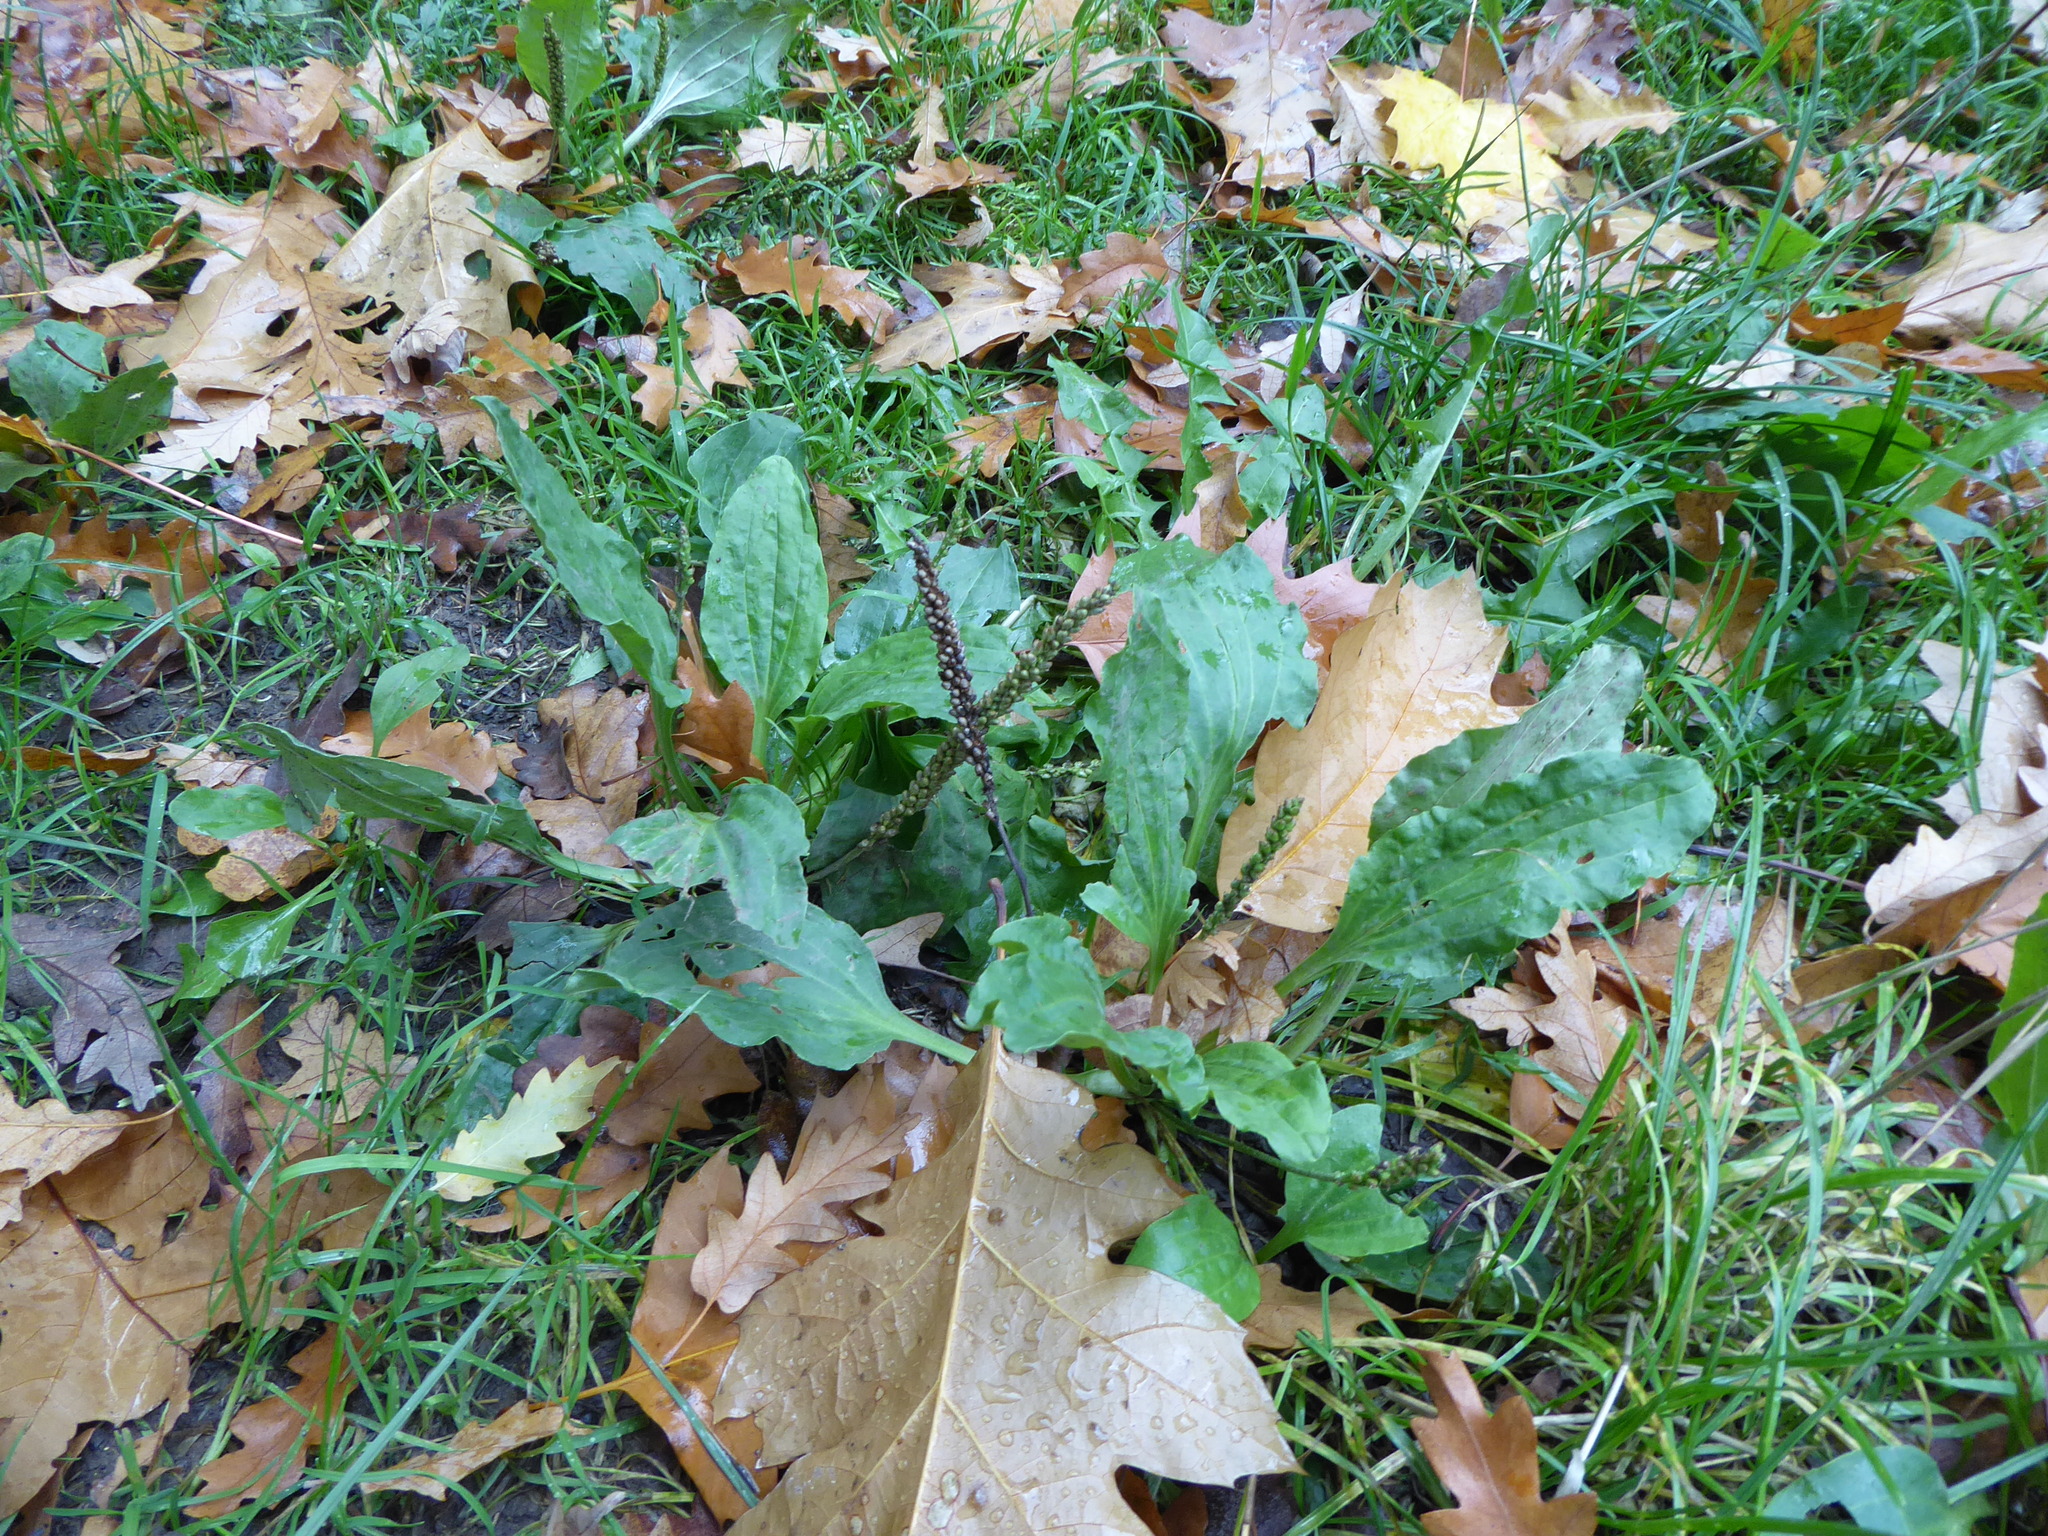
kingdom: Plantae
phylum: Tracheophyta
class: Magnoliopsida
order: Lamiales
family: Plantaginaceae
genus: Plantago
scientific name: Plantago major
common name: Common plantain
